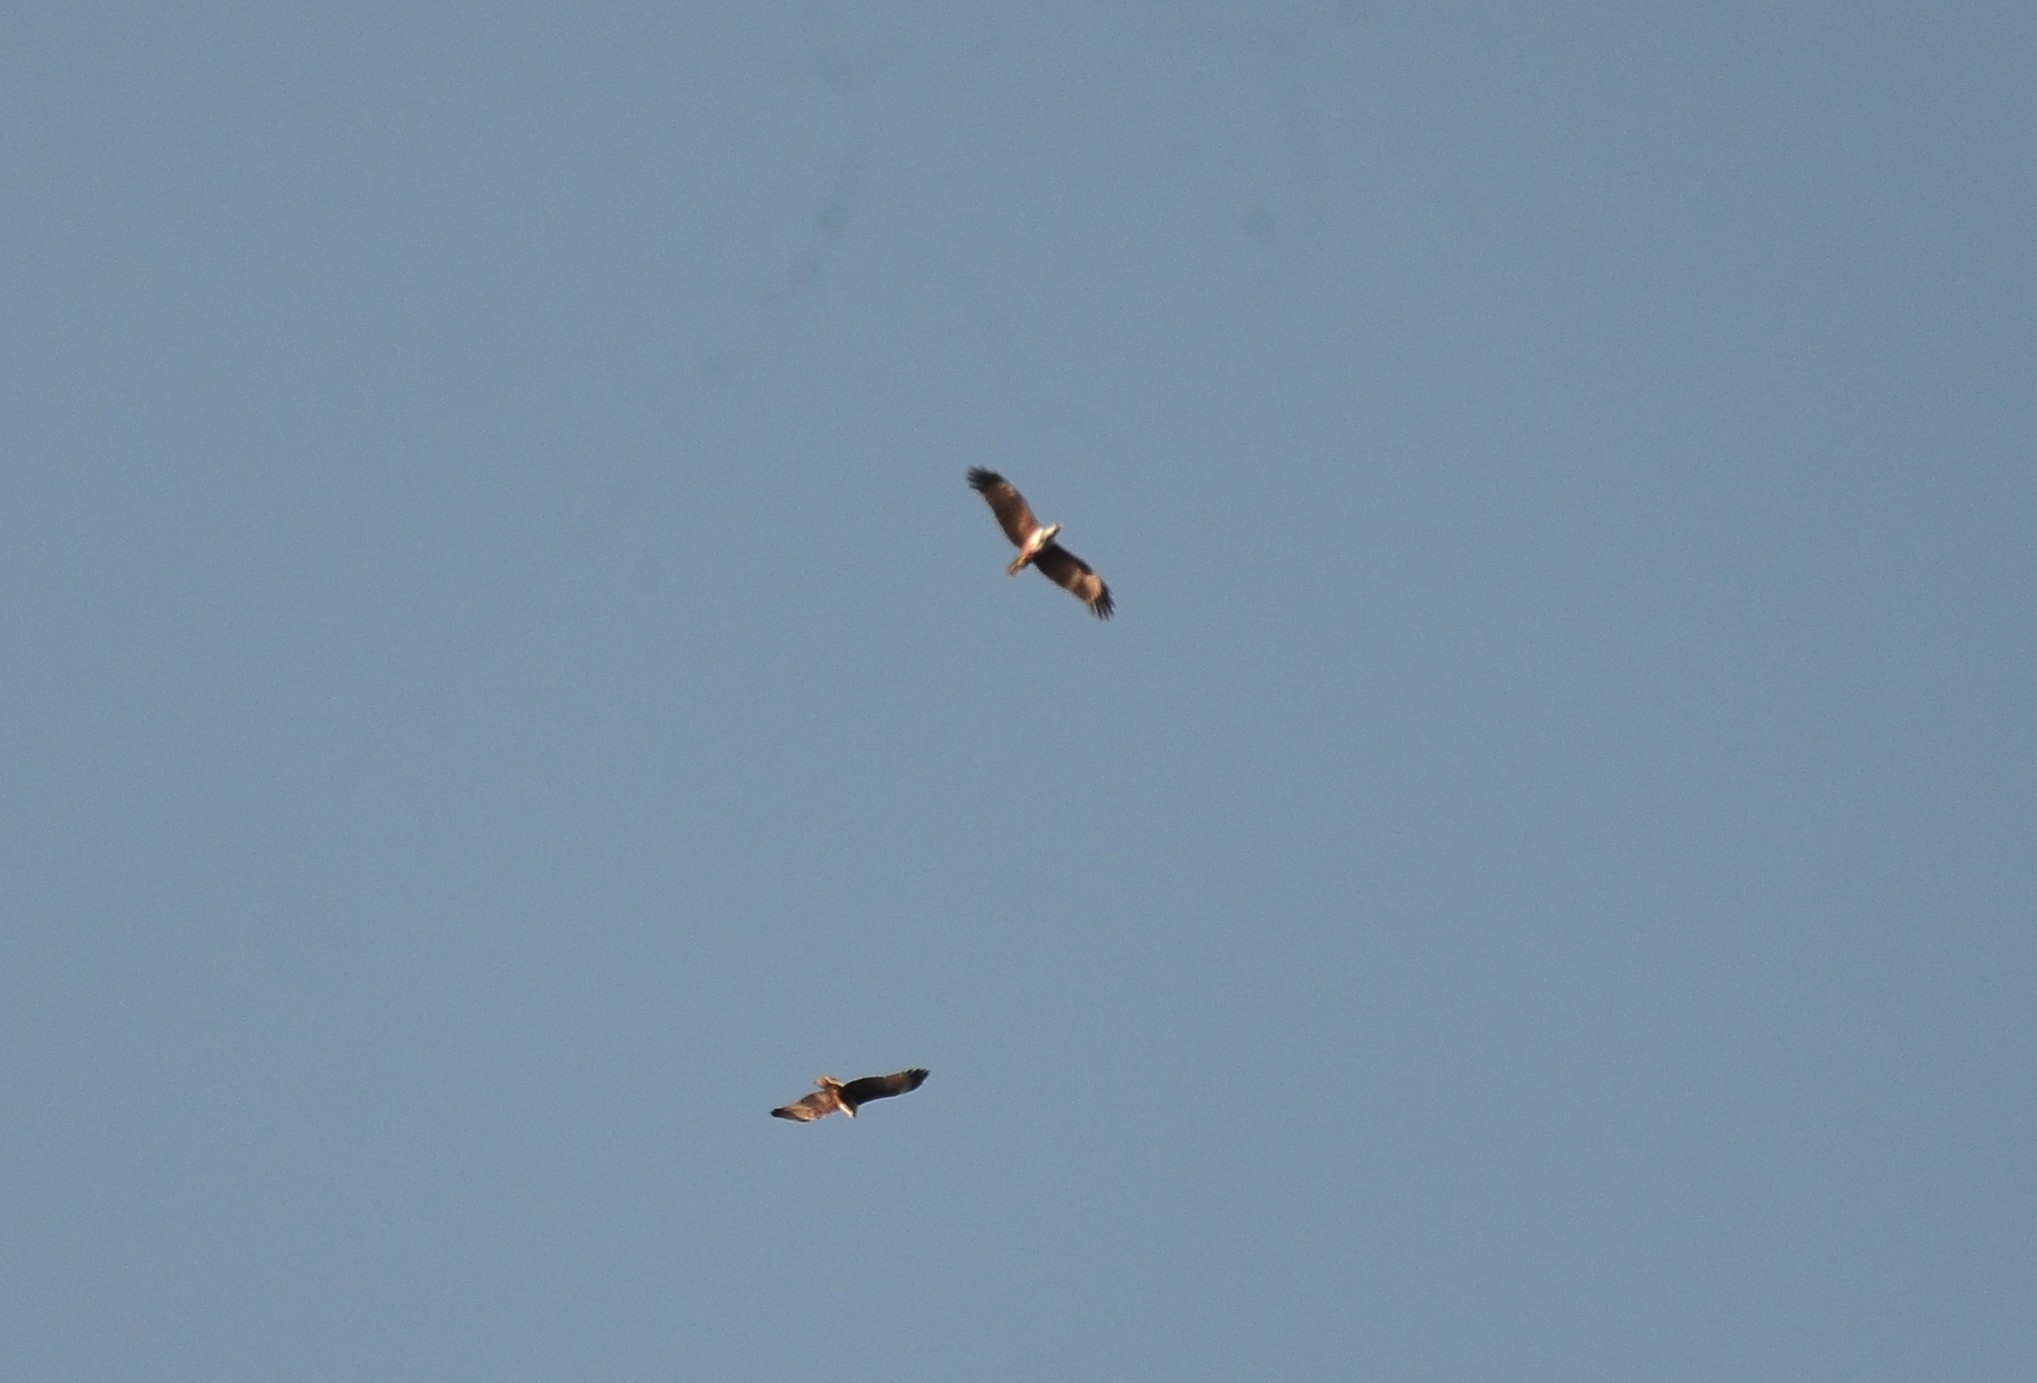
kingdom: Animalia
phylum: Chordata
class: Aves
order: Accipitriformes
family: Accipitridae
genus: Haliastur
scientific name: Haliastur indus
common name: Brahminy kite
